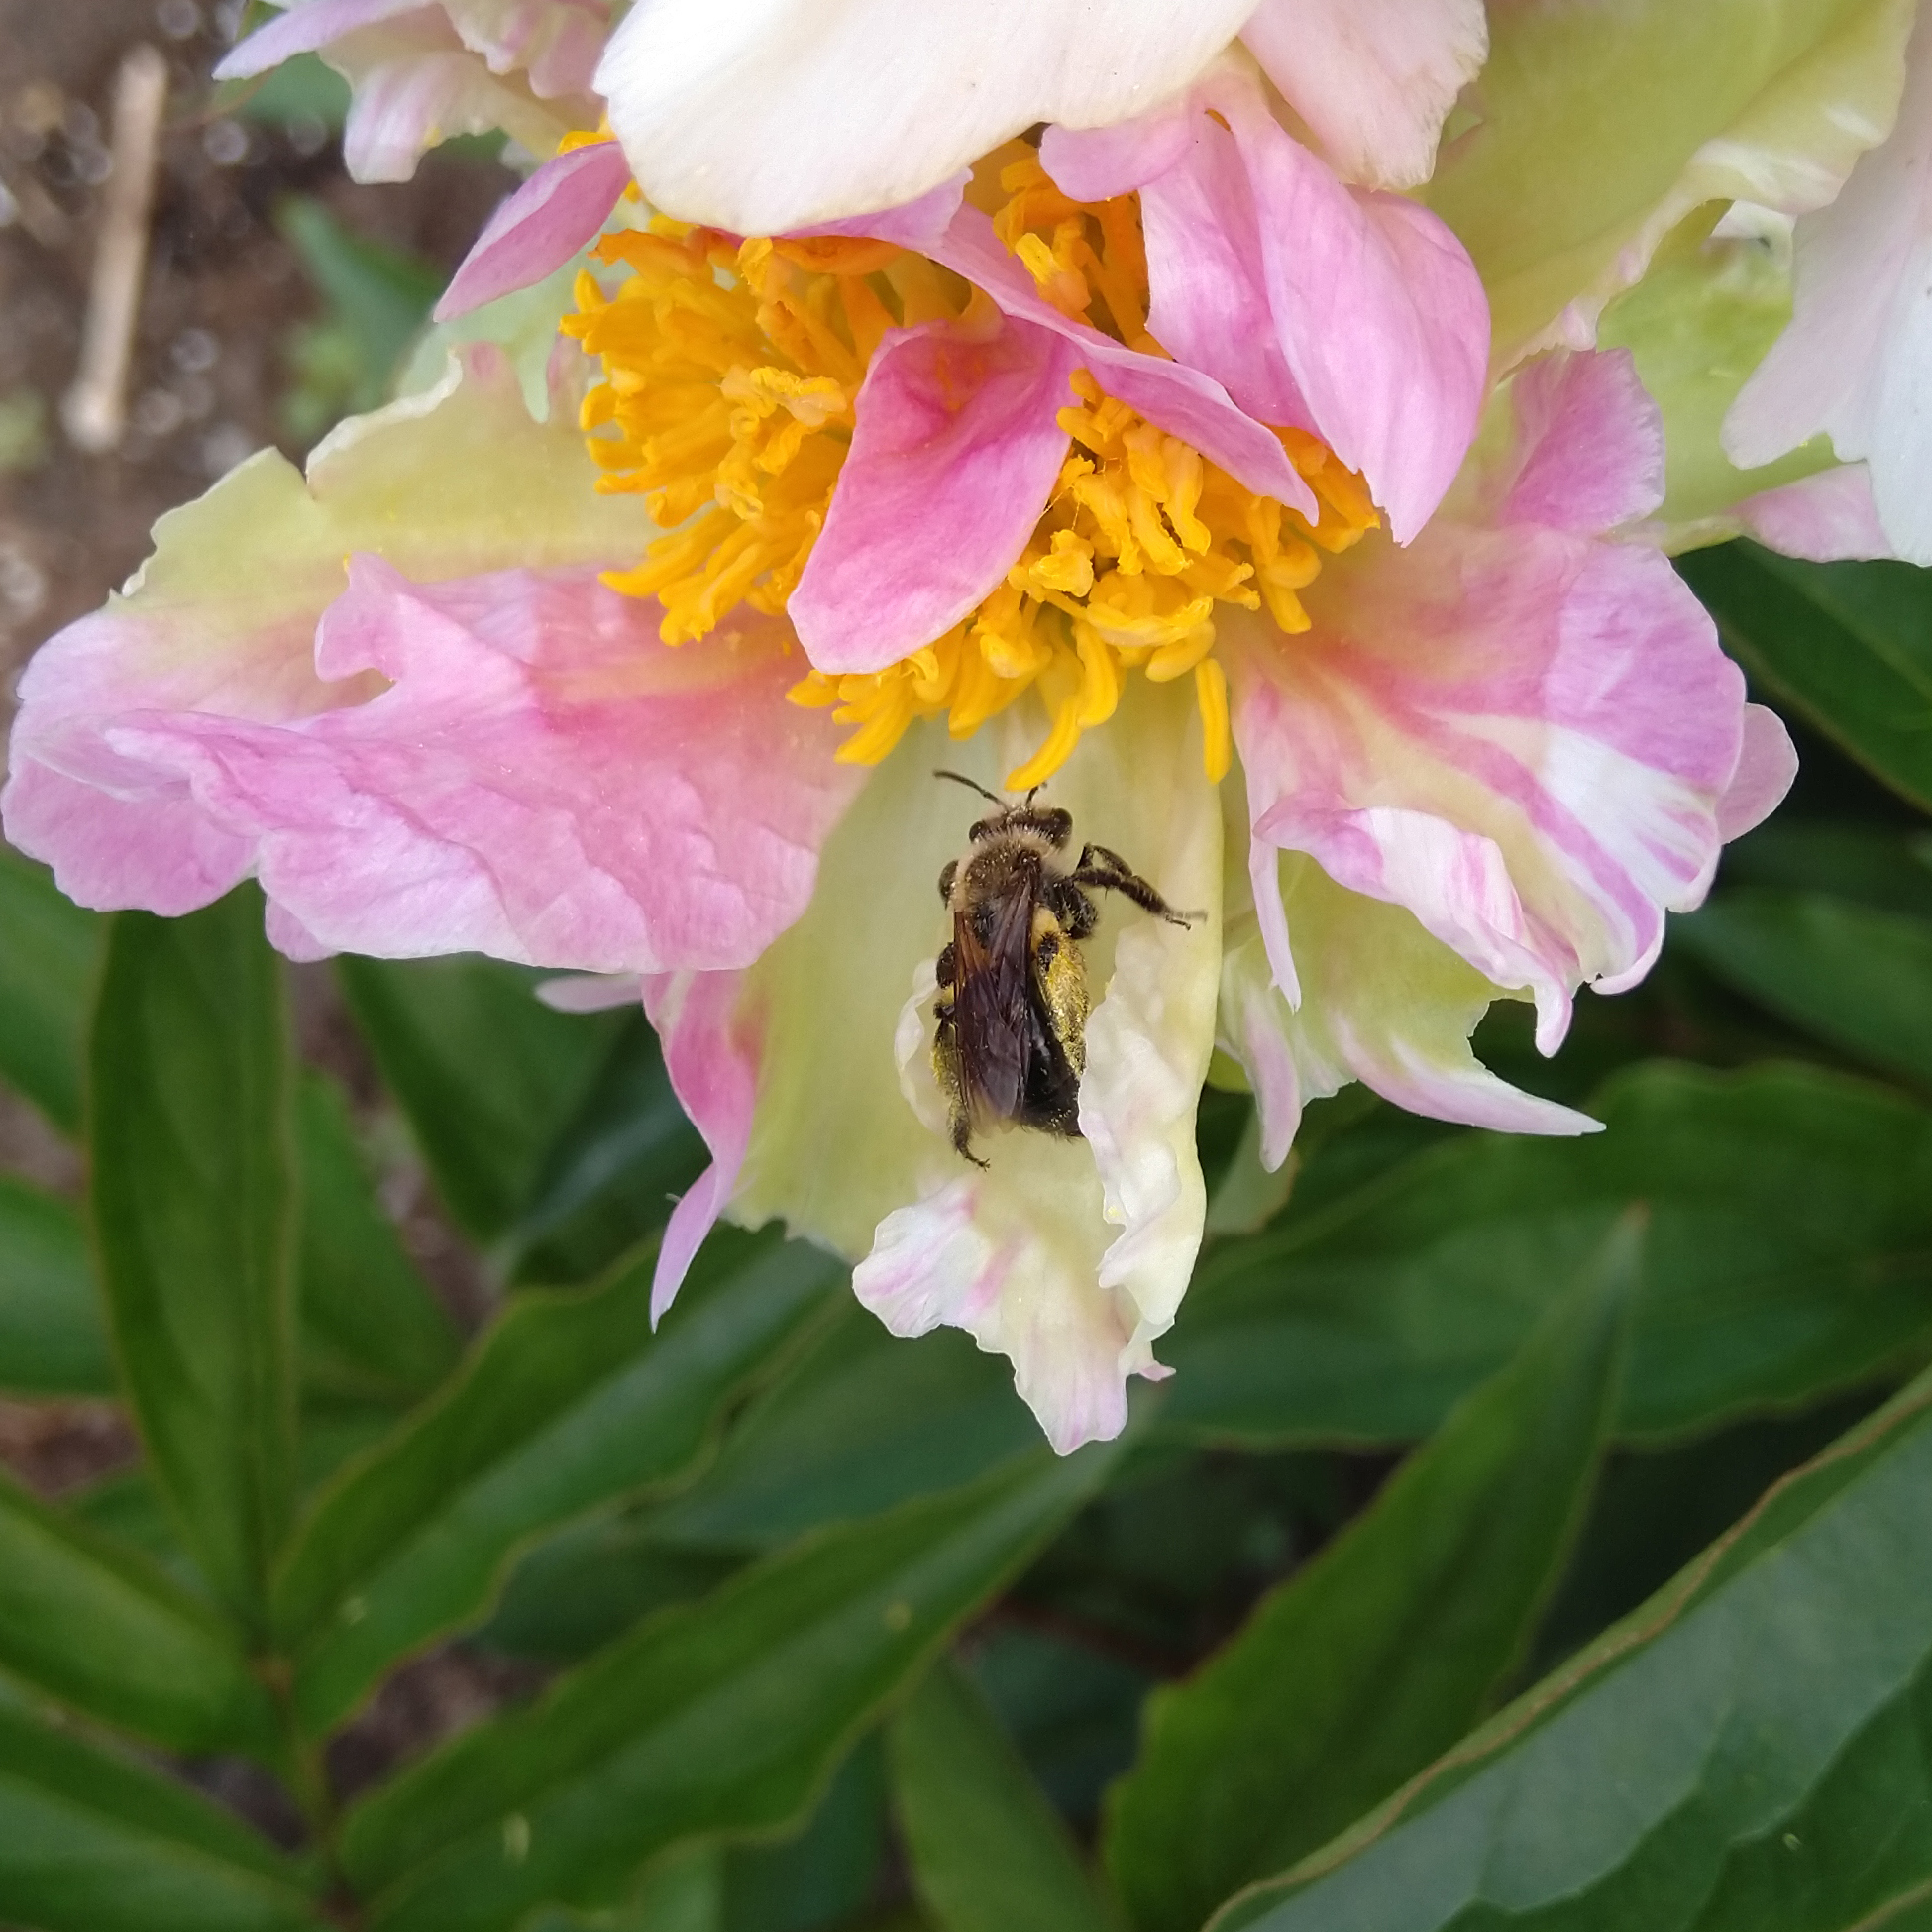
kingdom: Animalia
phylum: Arthropoda
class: Insecta
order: Hymenoptera
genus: Melandrena
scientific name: Melandrena
